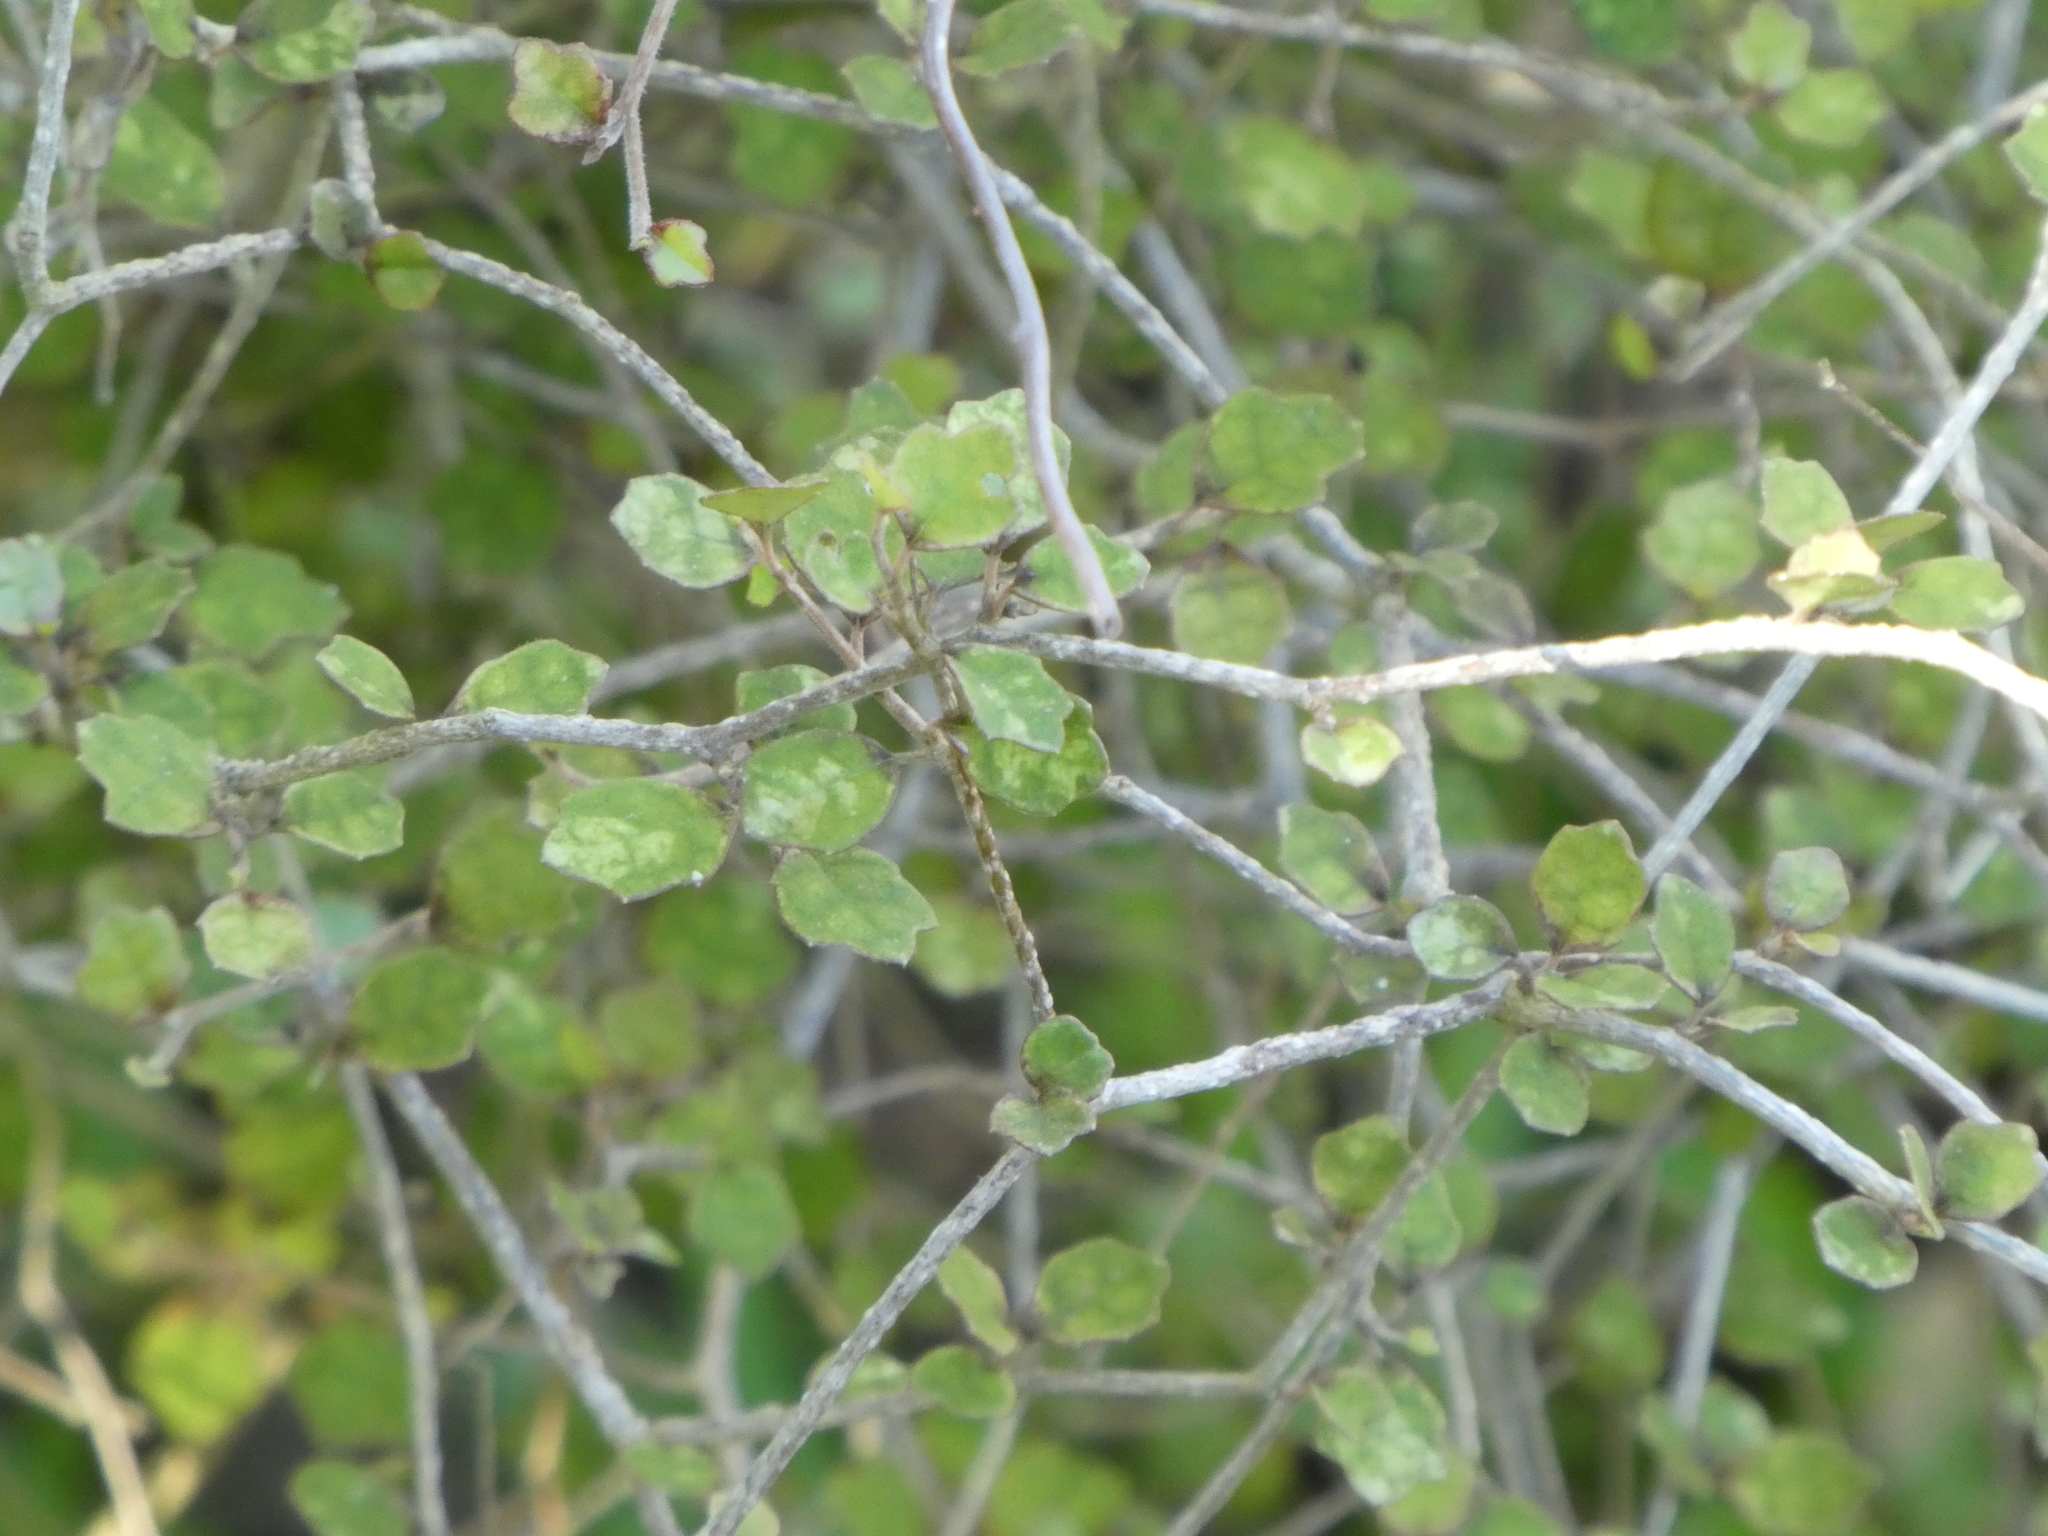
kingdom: Plantae
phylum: Tracheophyta
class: Magnoliopsida
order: Apiales
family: Pennantiaceae
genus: Pennantia
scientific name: Pennantia corymbosa
